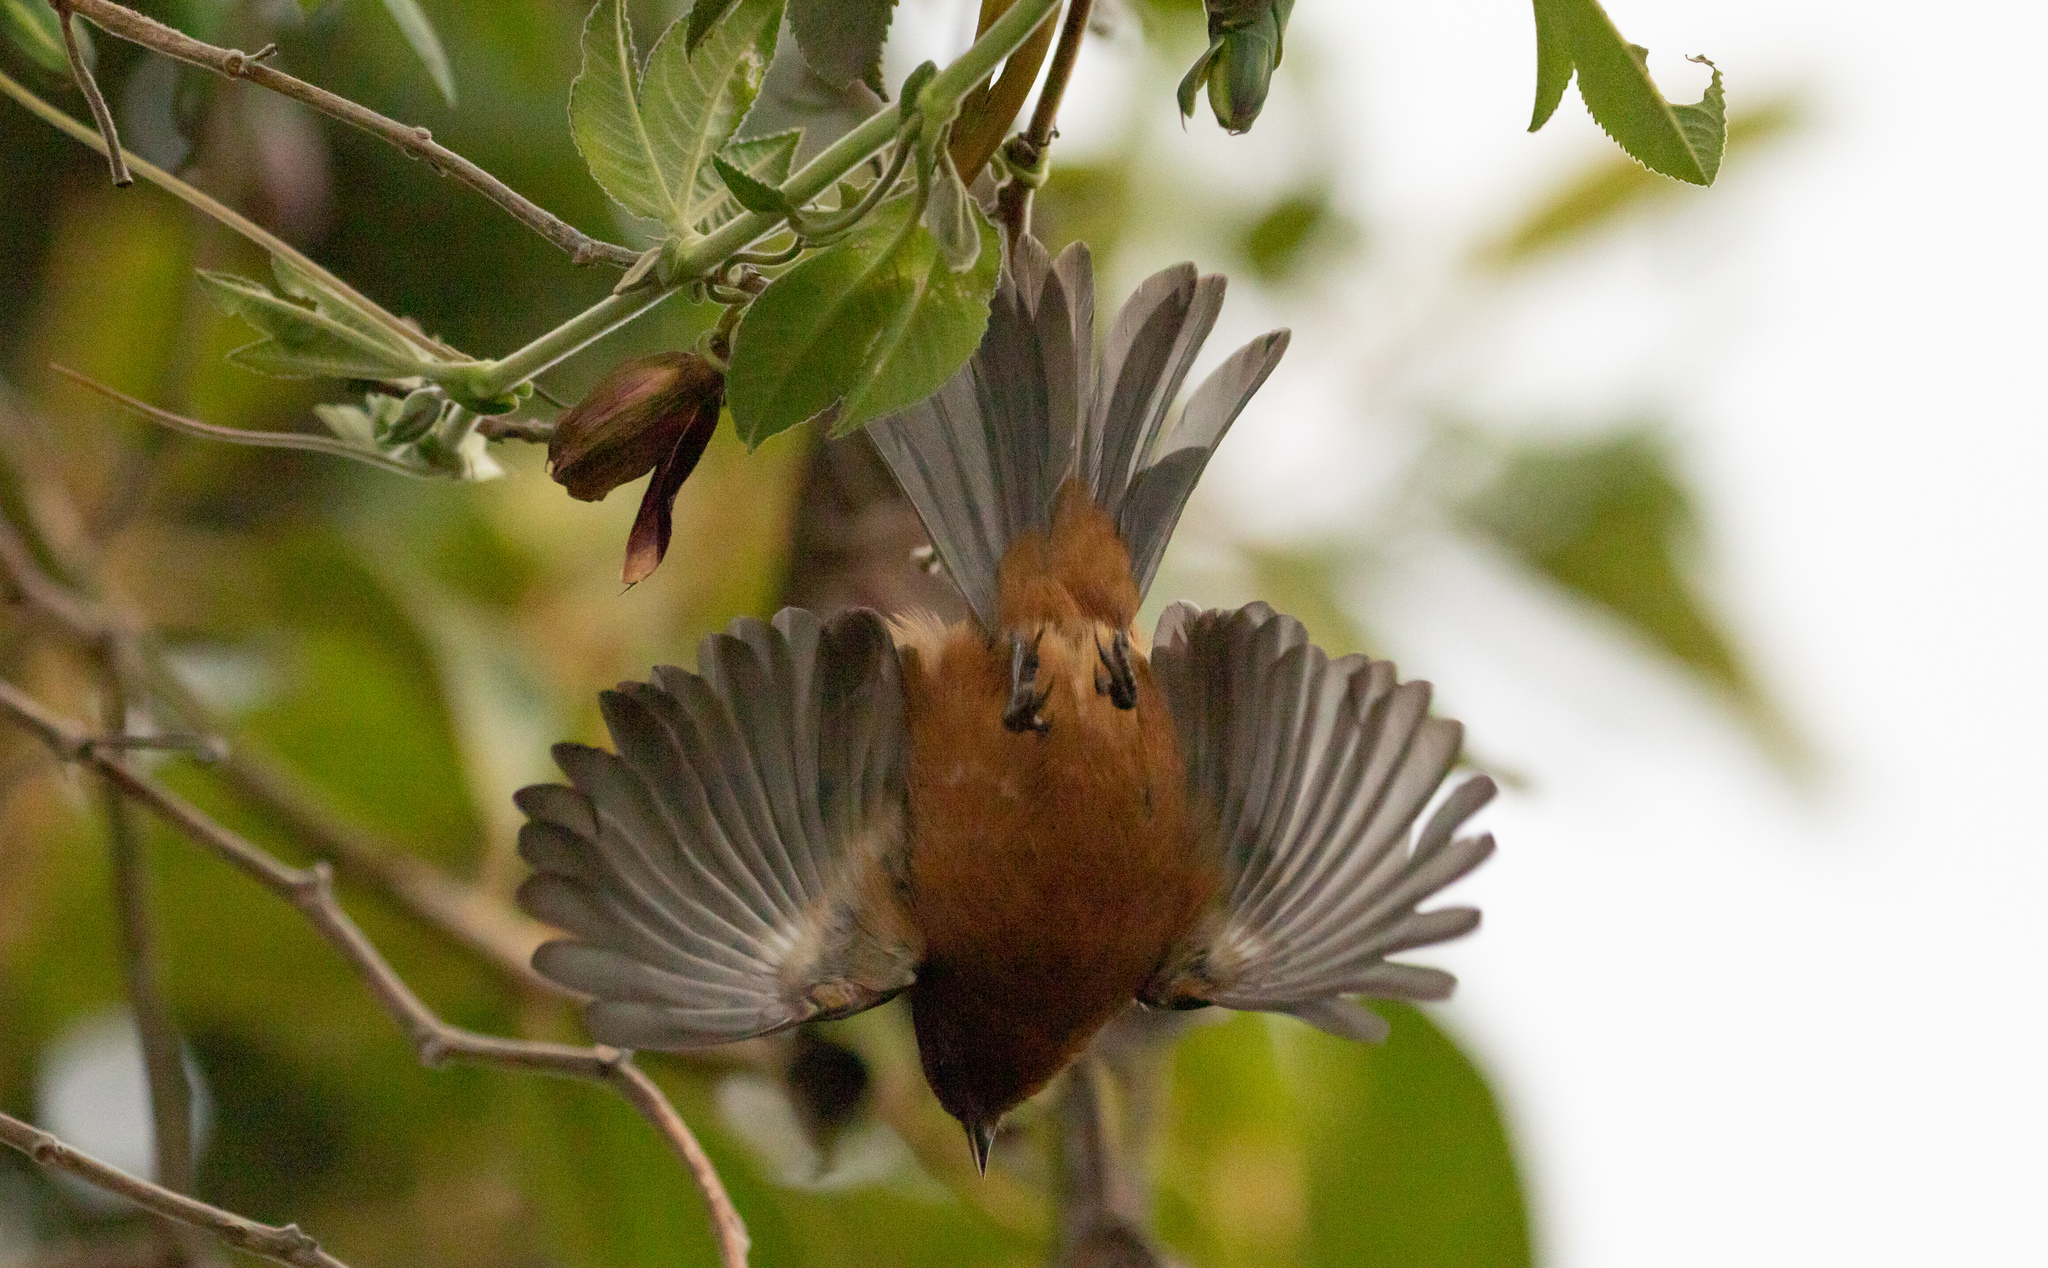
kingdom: Animalia
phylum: Chordata
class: Aves
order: Passeriformes
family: Thraupidae
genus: Conirostrum
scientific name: Conirostrum rufum
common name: Rufous-browed conebill
